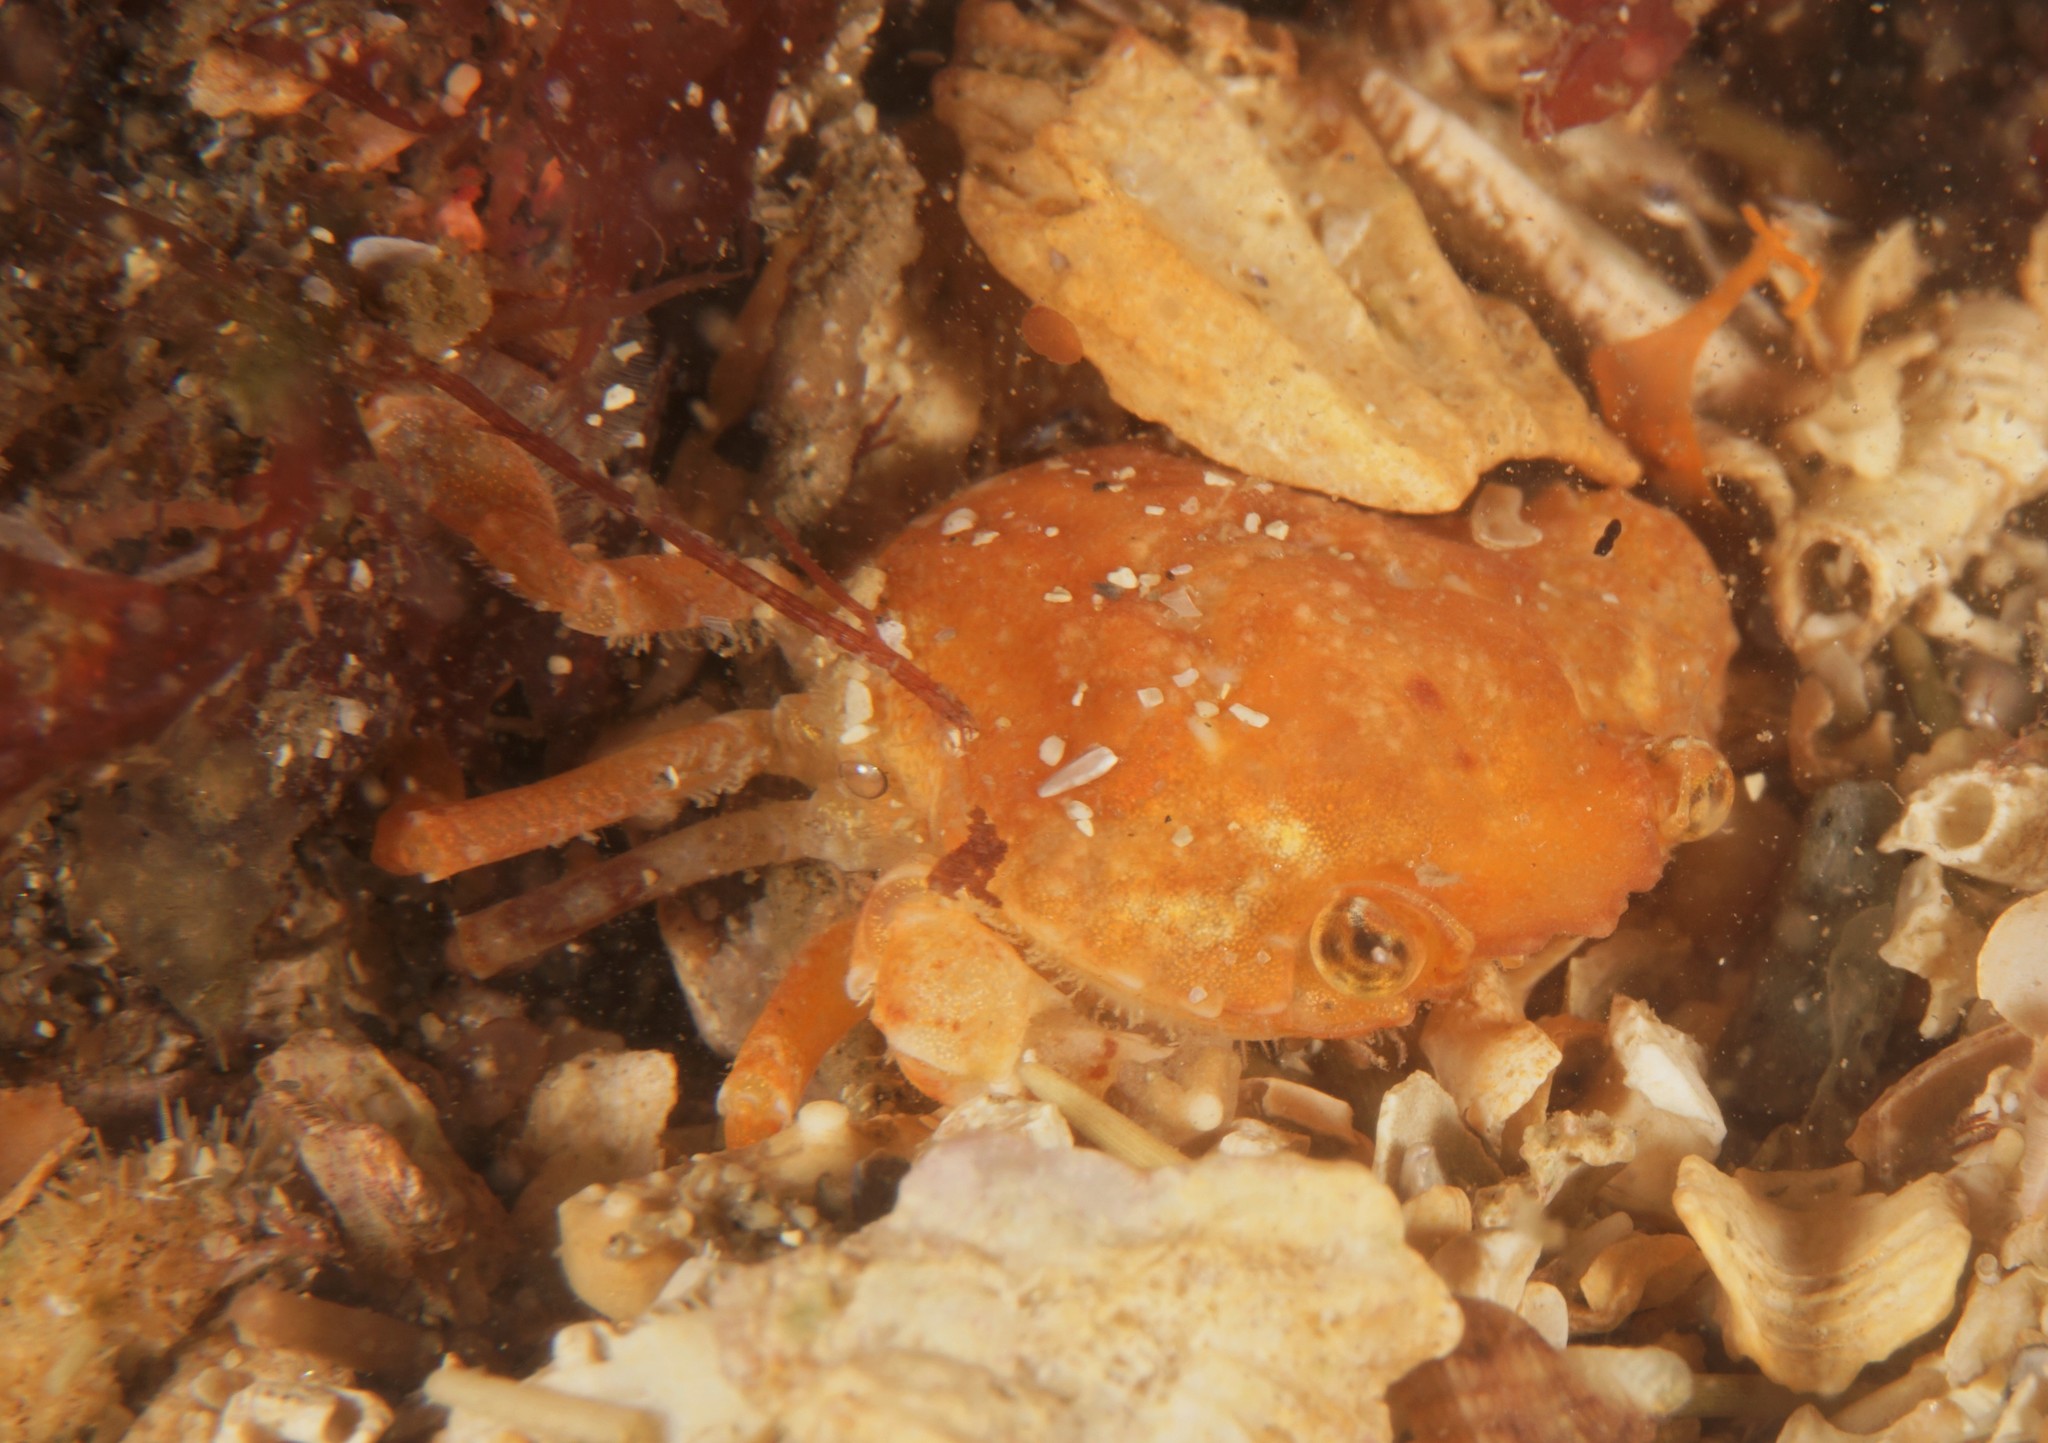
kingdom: Animalia
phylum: Arthropoda
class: Malacostraca
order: Decapoda
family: Polybiidae
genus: Liocarcinus
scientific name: Liocarcinus pusillus
